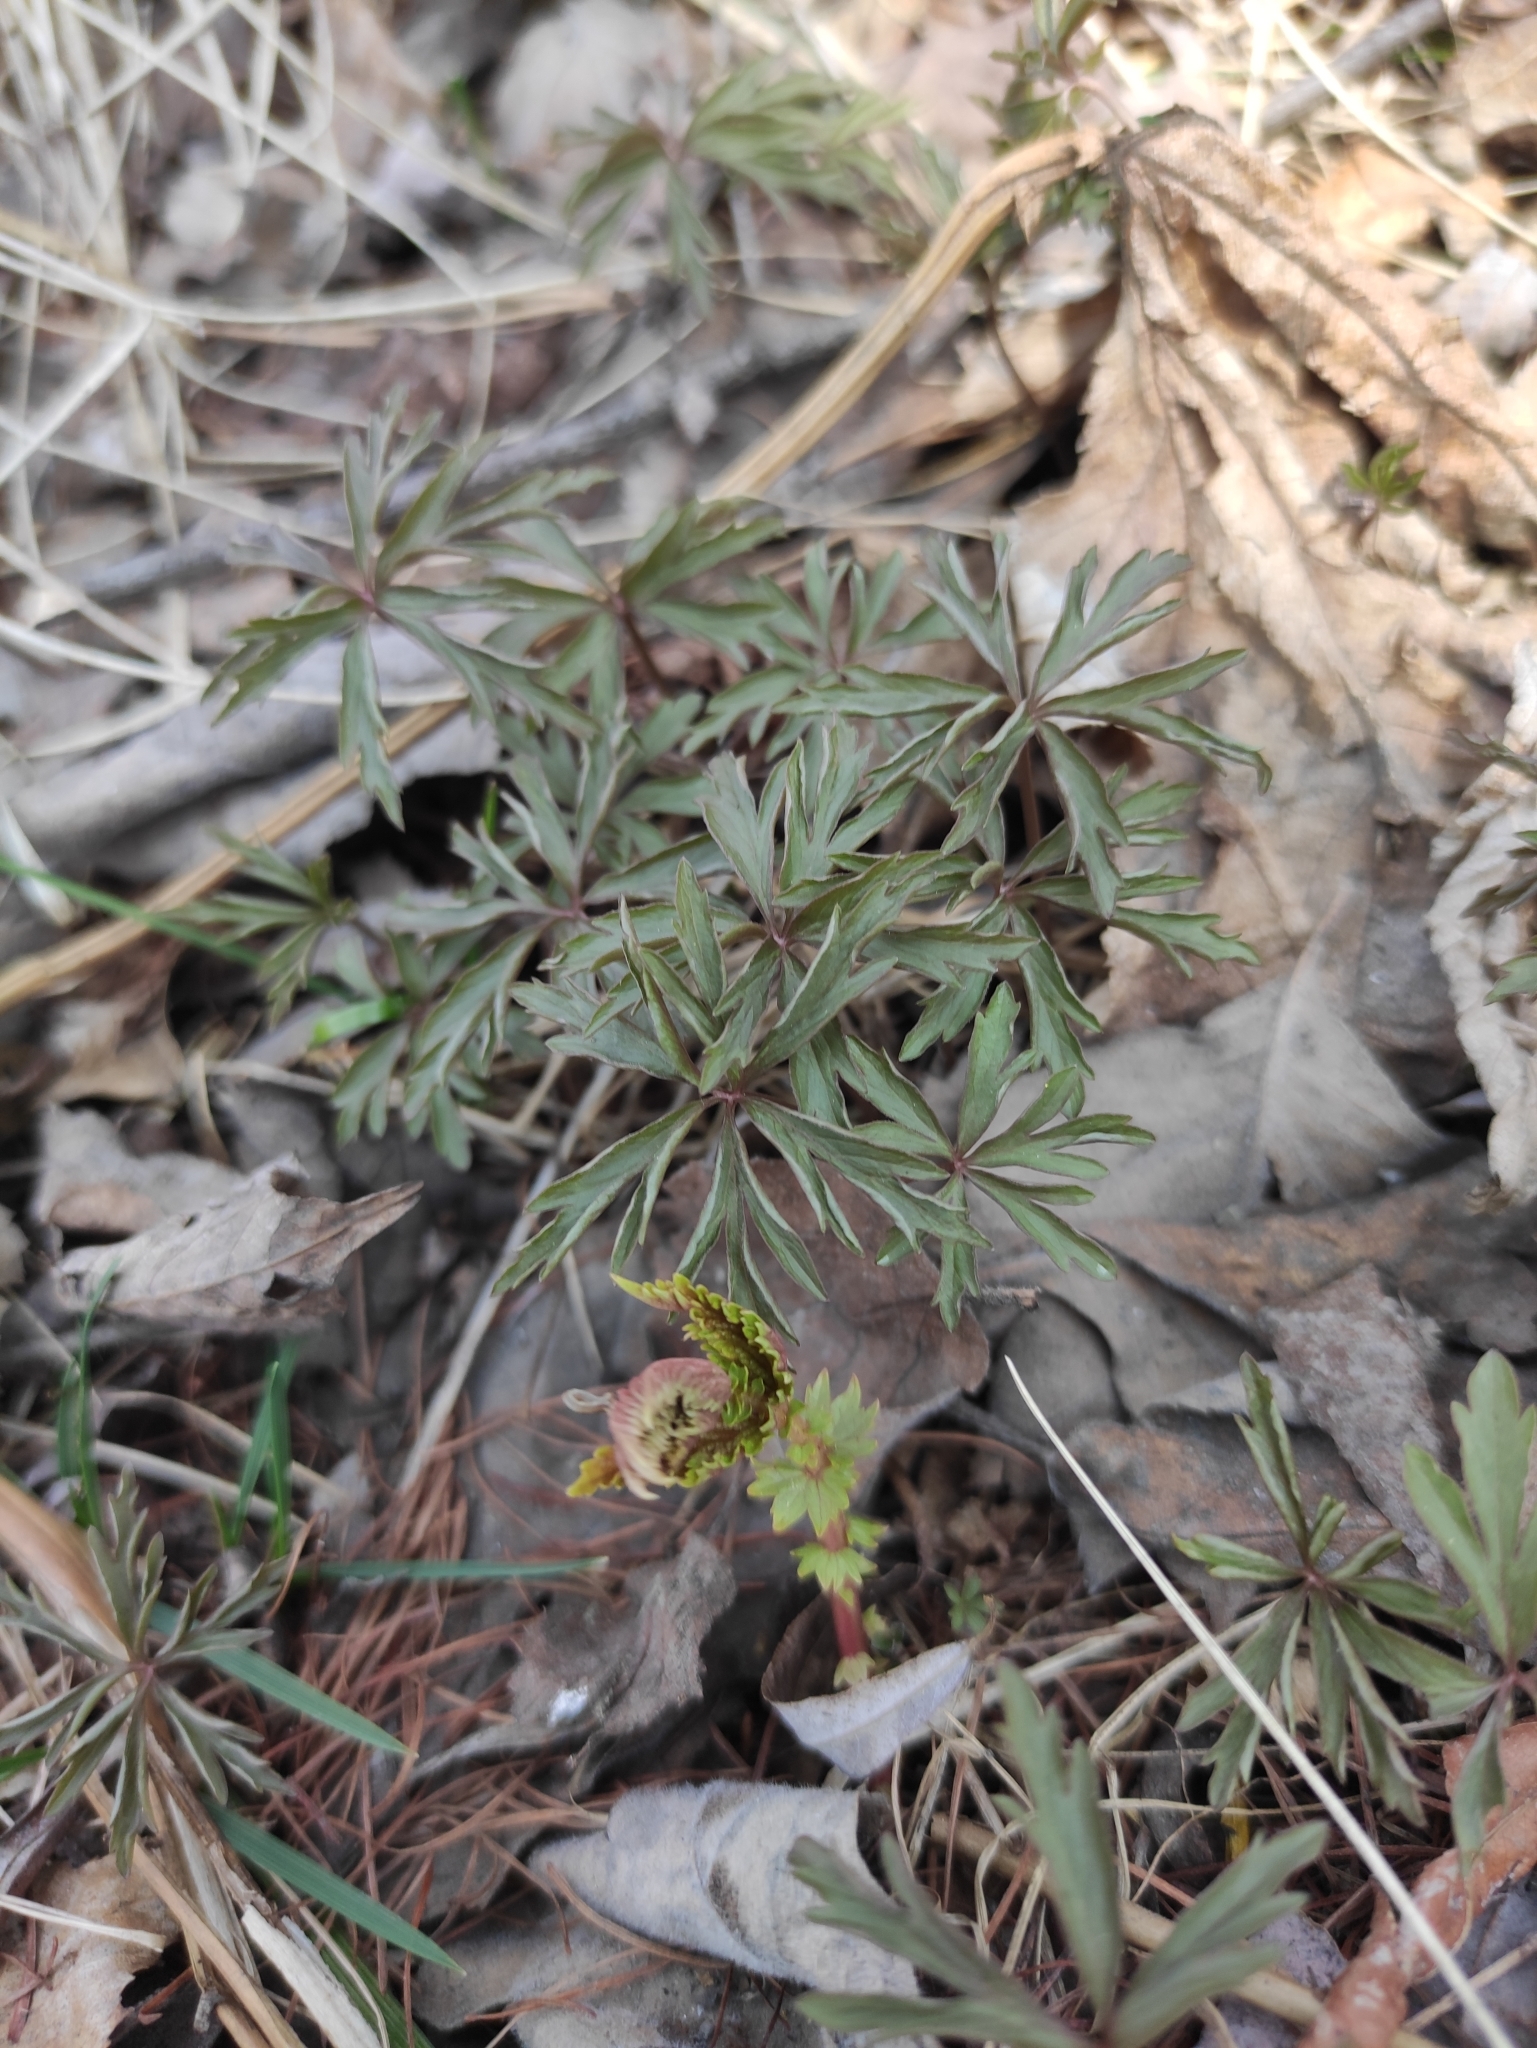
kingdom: Plantae
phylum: Tracheophyta
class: Magnoliopsida
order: Ranunculales
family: Ranunculaceae
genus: Anemone
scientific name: Anemone reflexa
